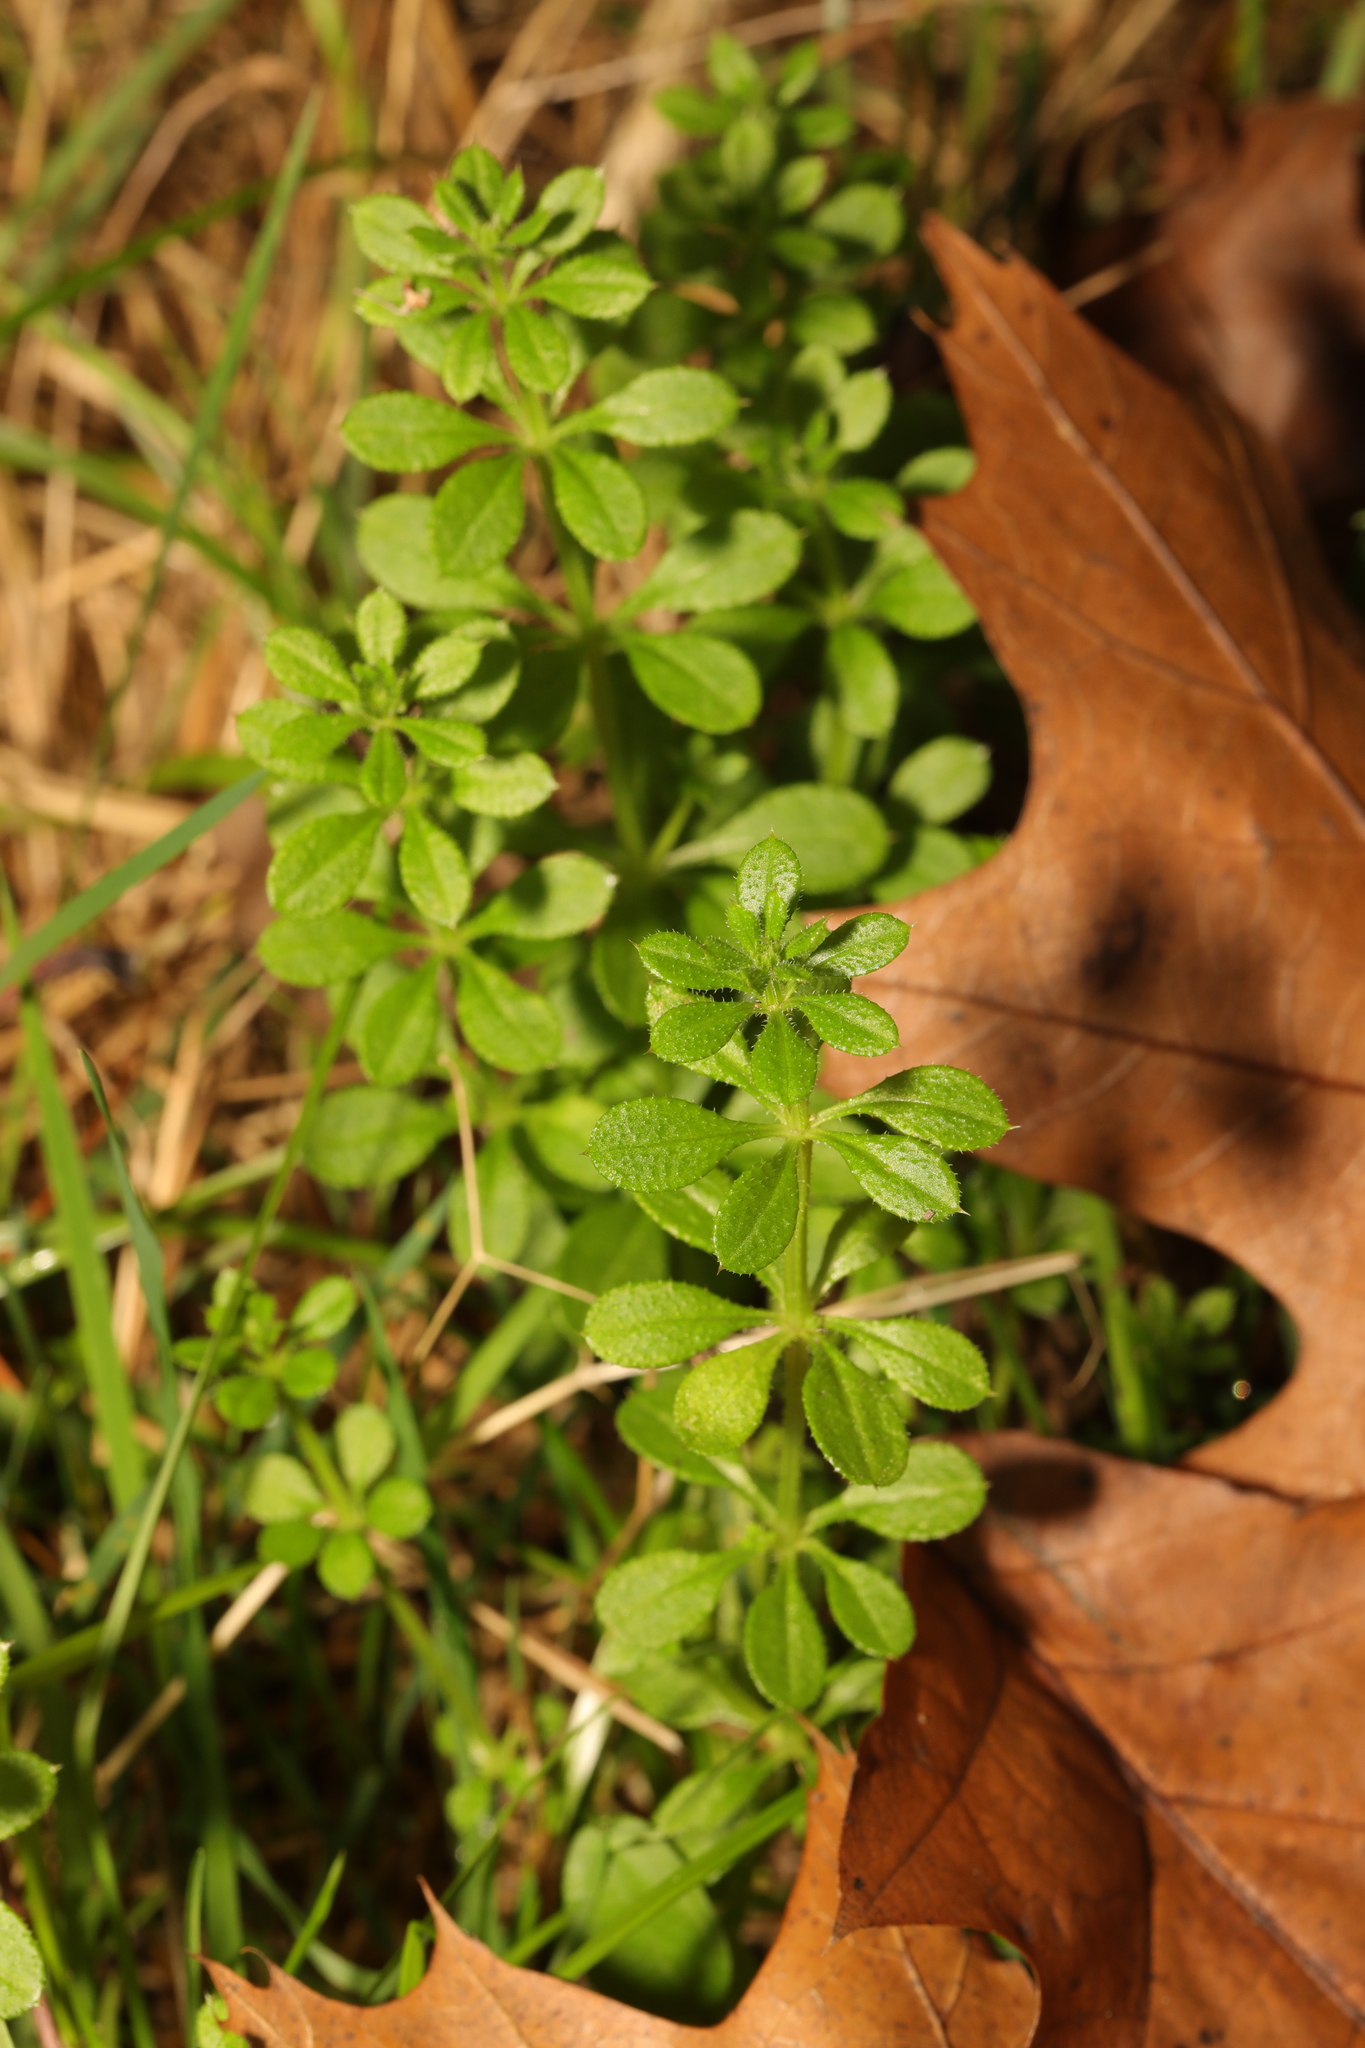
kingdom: Plantae
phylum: Tracheophyta
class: Magnoliopsida
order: Gentianales
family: Rubiaceae
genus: Galium
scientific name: Galium aparine
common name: Cleavers
